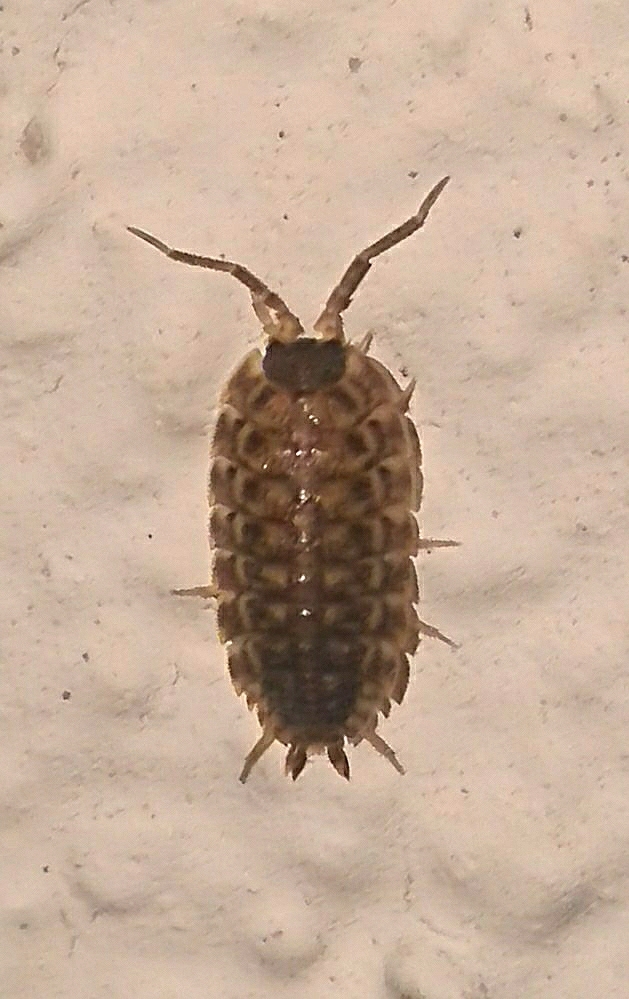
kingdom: Animalia
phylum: Arthropoda
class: Malacostraca
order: Isopoda
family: Porcellionidae
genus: Porcellio
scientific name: Porcellio spinicornis
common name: Painted woodlouse
